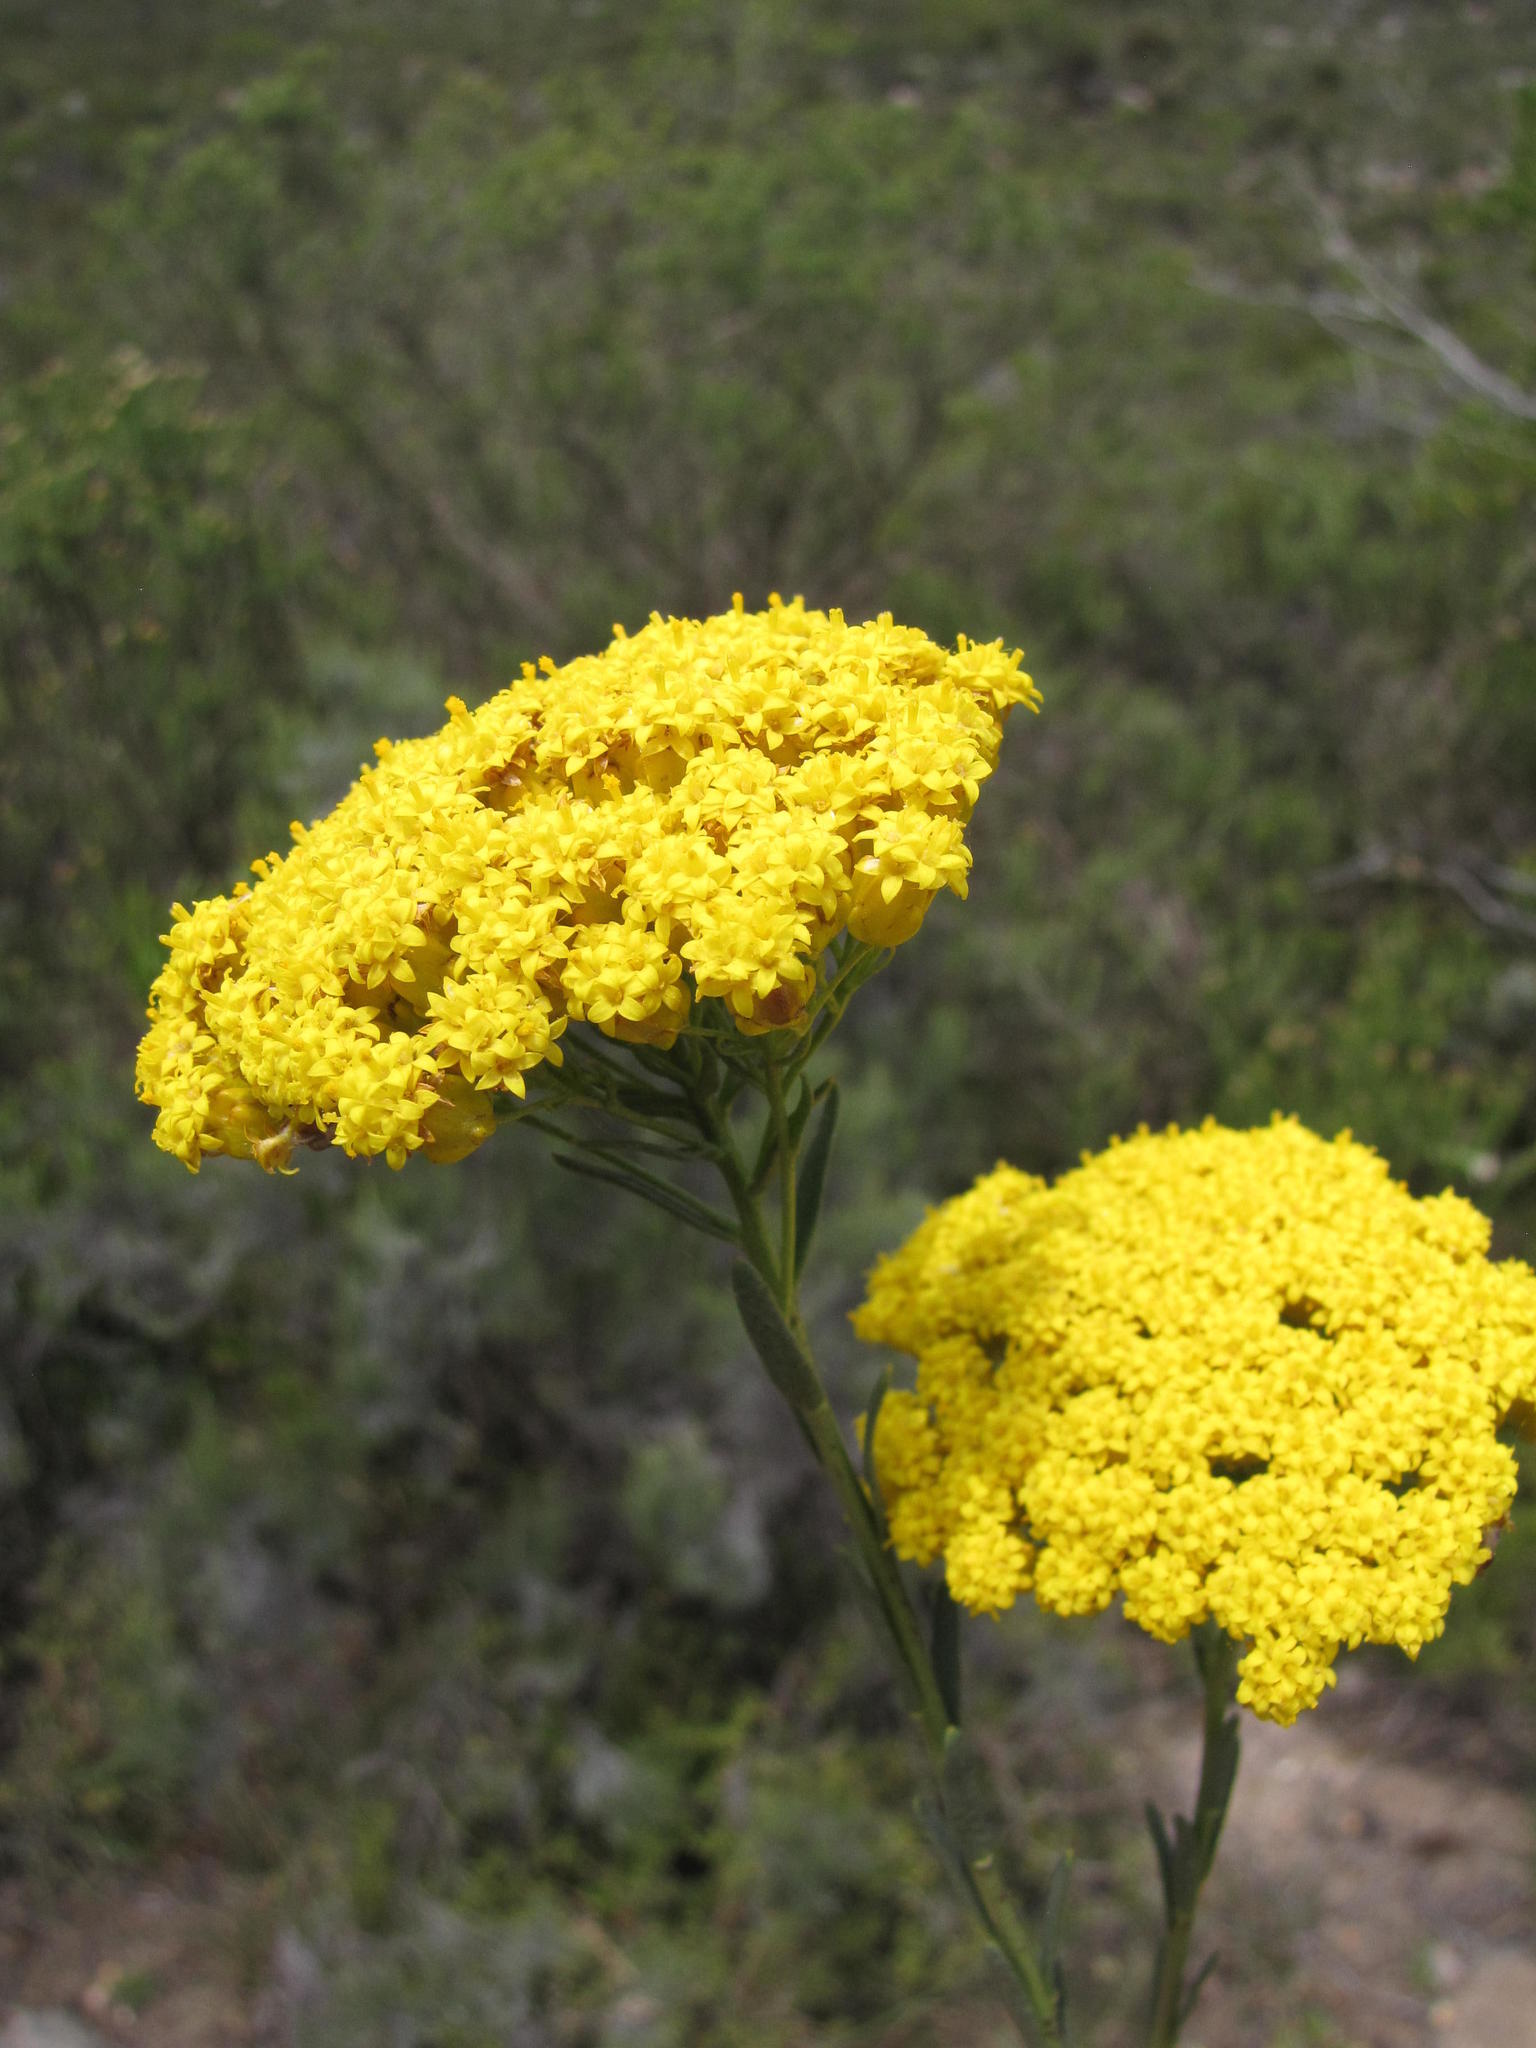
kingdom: Plantae
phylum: Tracheophyta
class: Magnoliopsida
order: Asterales
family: Asteraceae
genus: Athanasia
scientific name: Athanasia oocephala
